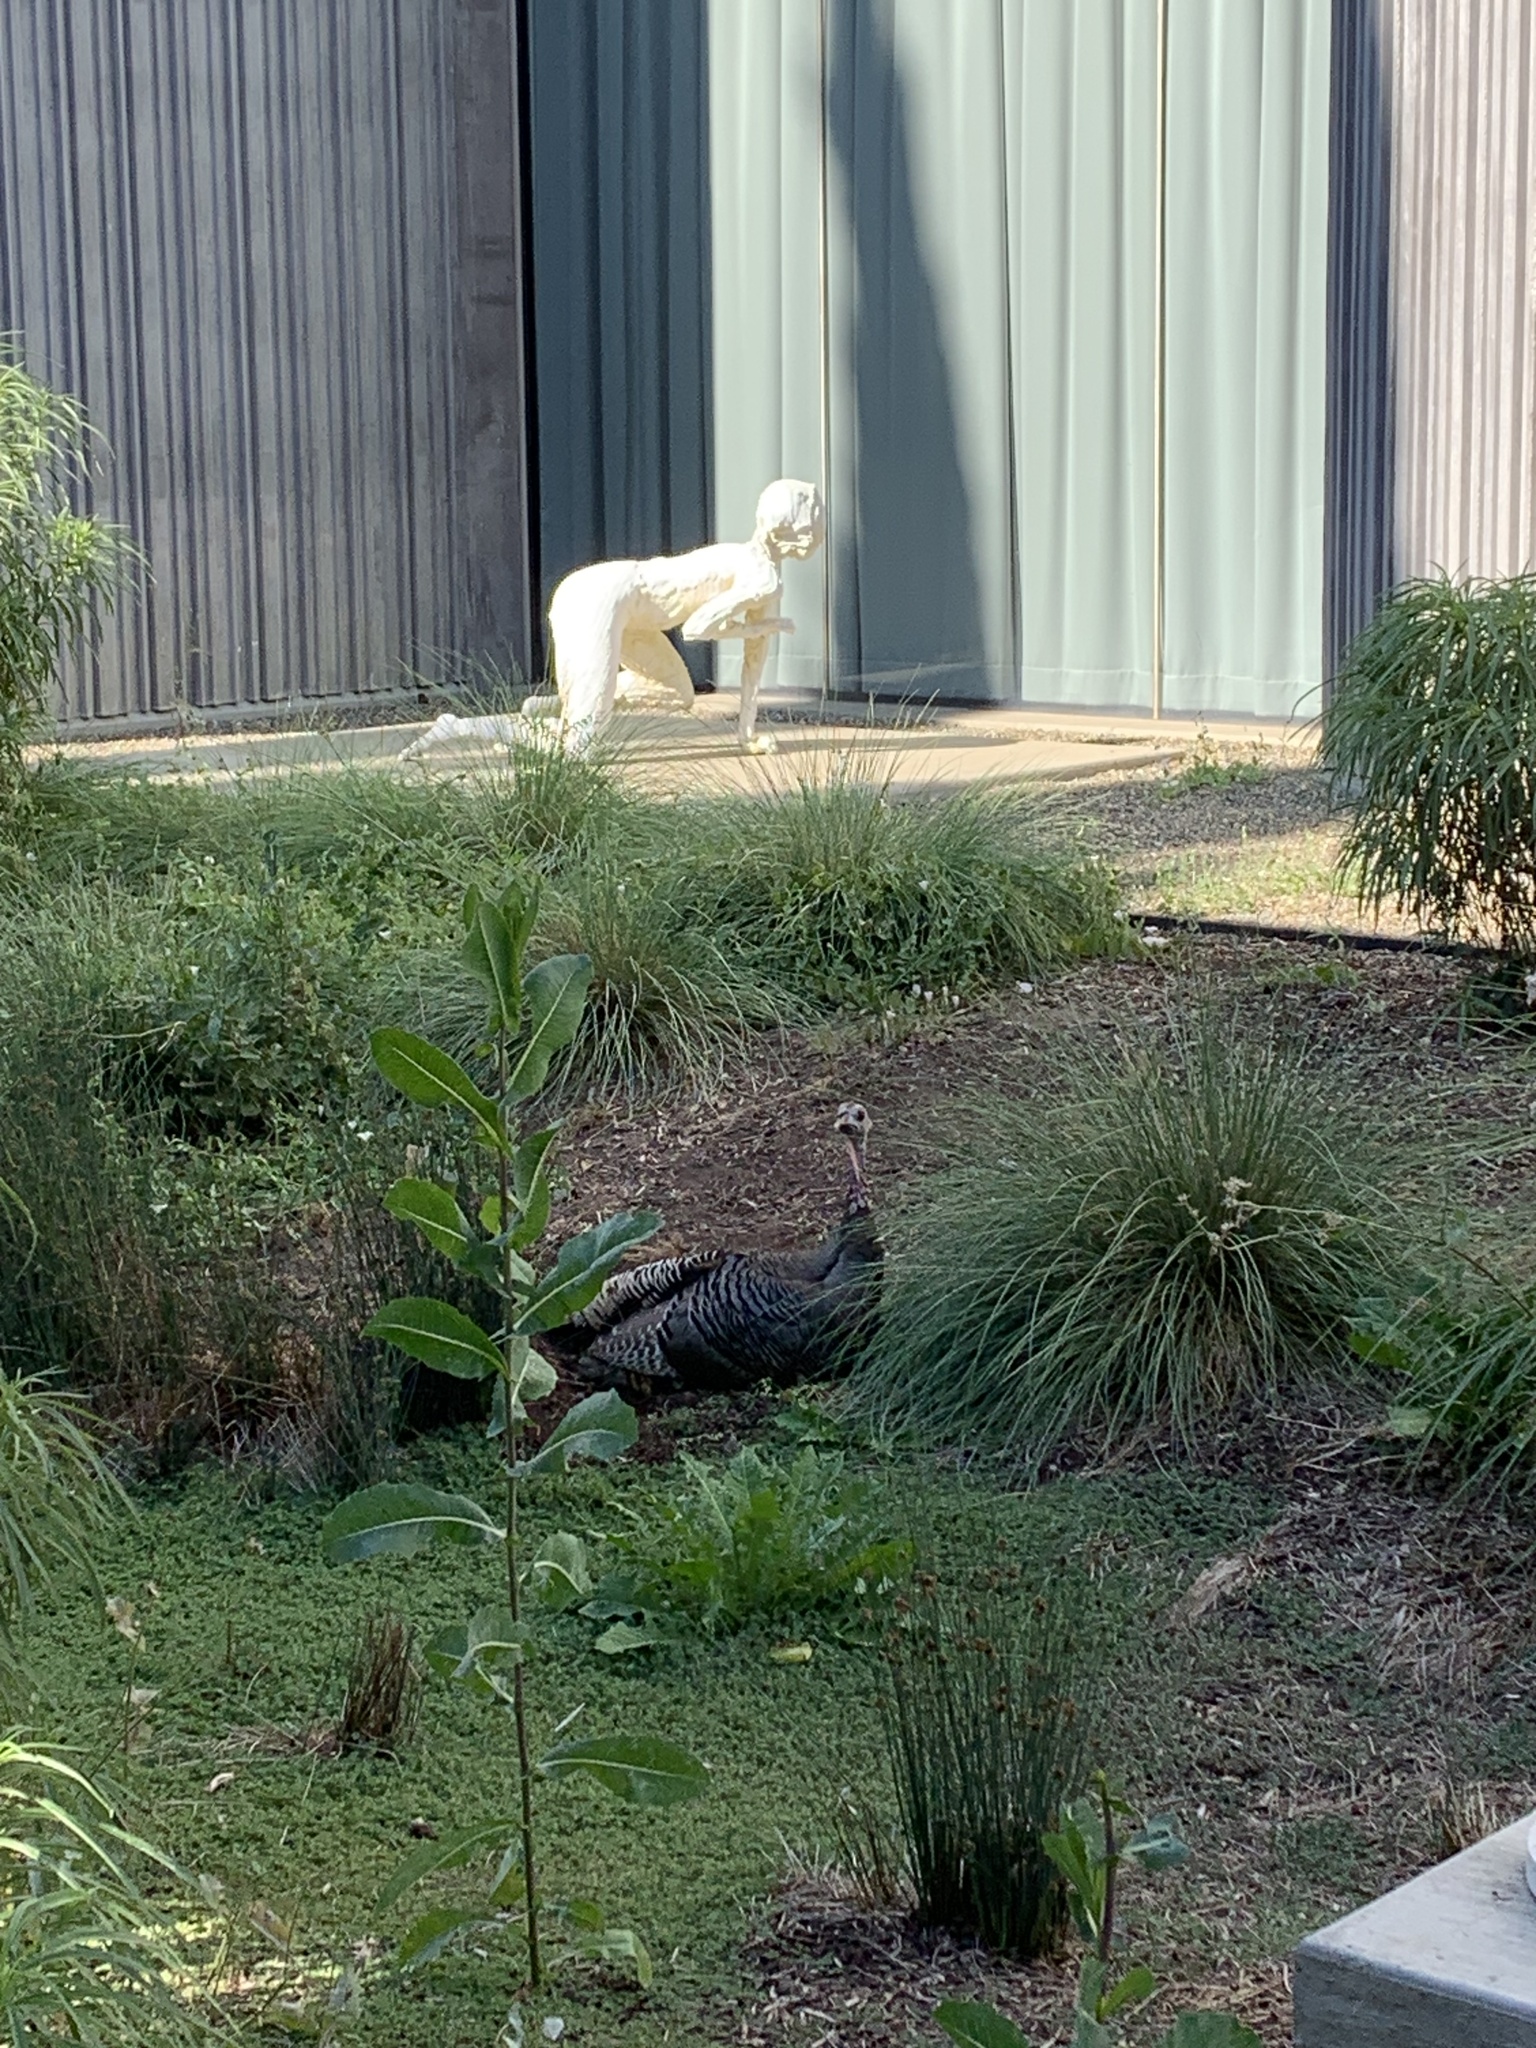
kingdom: Animalia
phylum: Chordata
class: Aves
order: Galliformes
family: Phasianidae
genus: Meleagris
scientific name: Meleagris gallopavo
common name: Wild turkey
